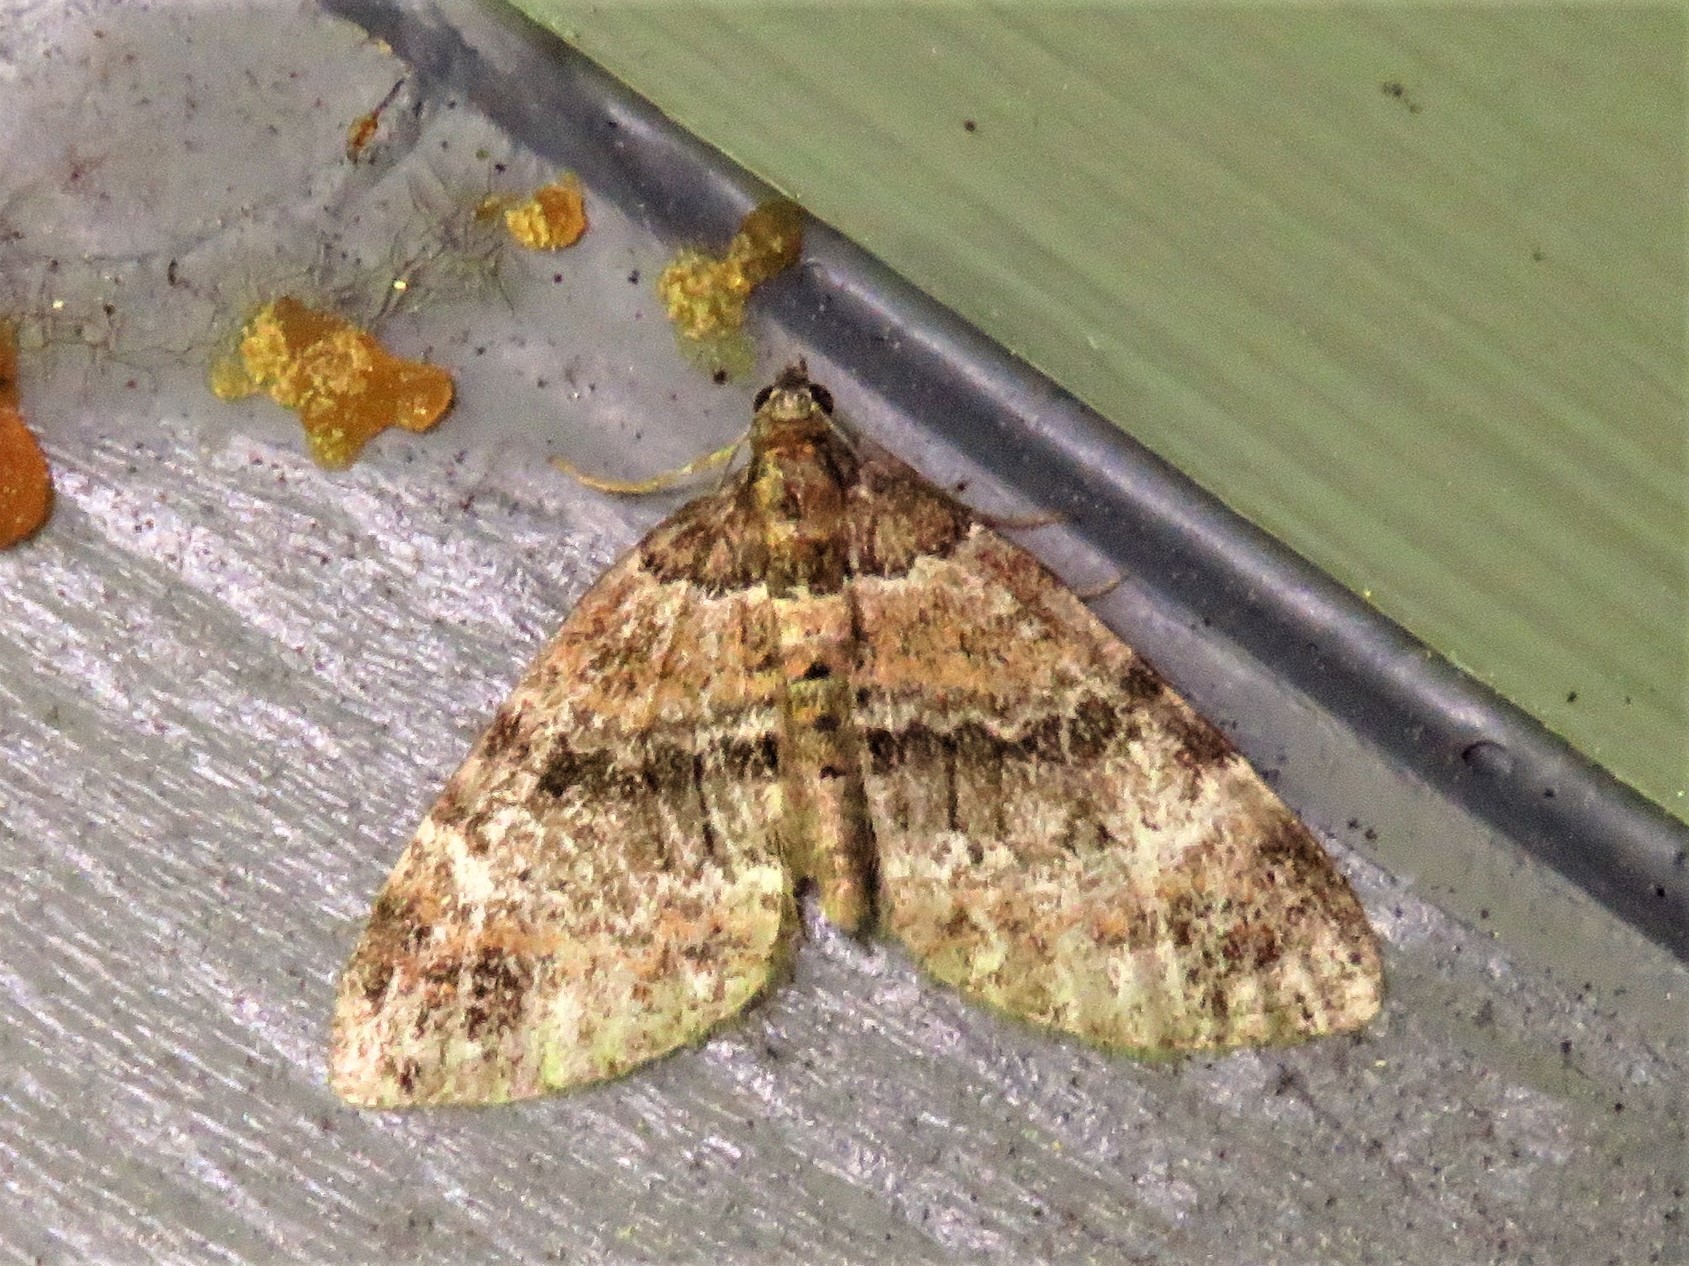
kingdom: Animalia
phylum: Arthropoda
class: Insecta
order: Lepidoptera
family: Geometridae
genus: Perizoma
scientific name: Perizoma taeniata
